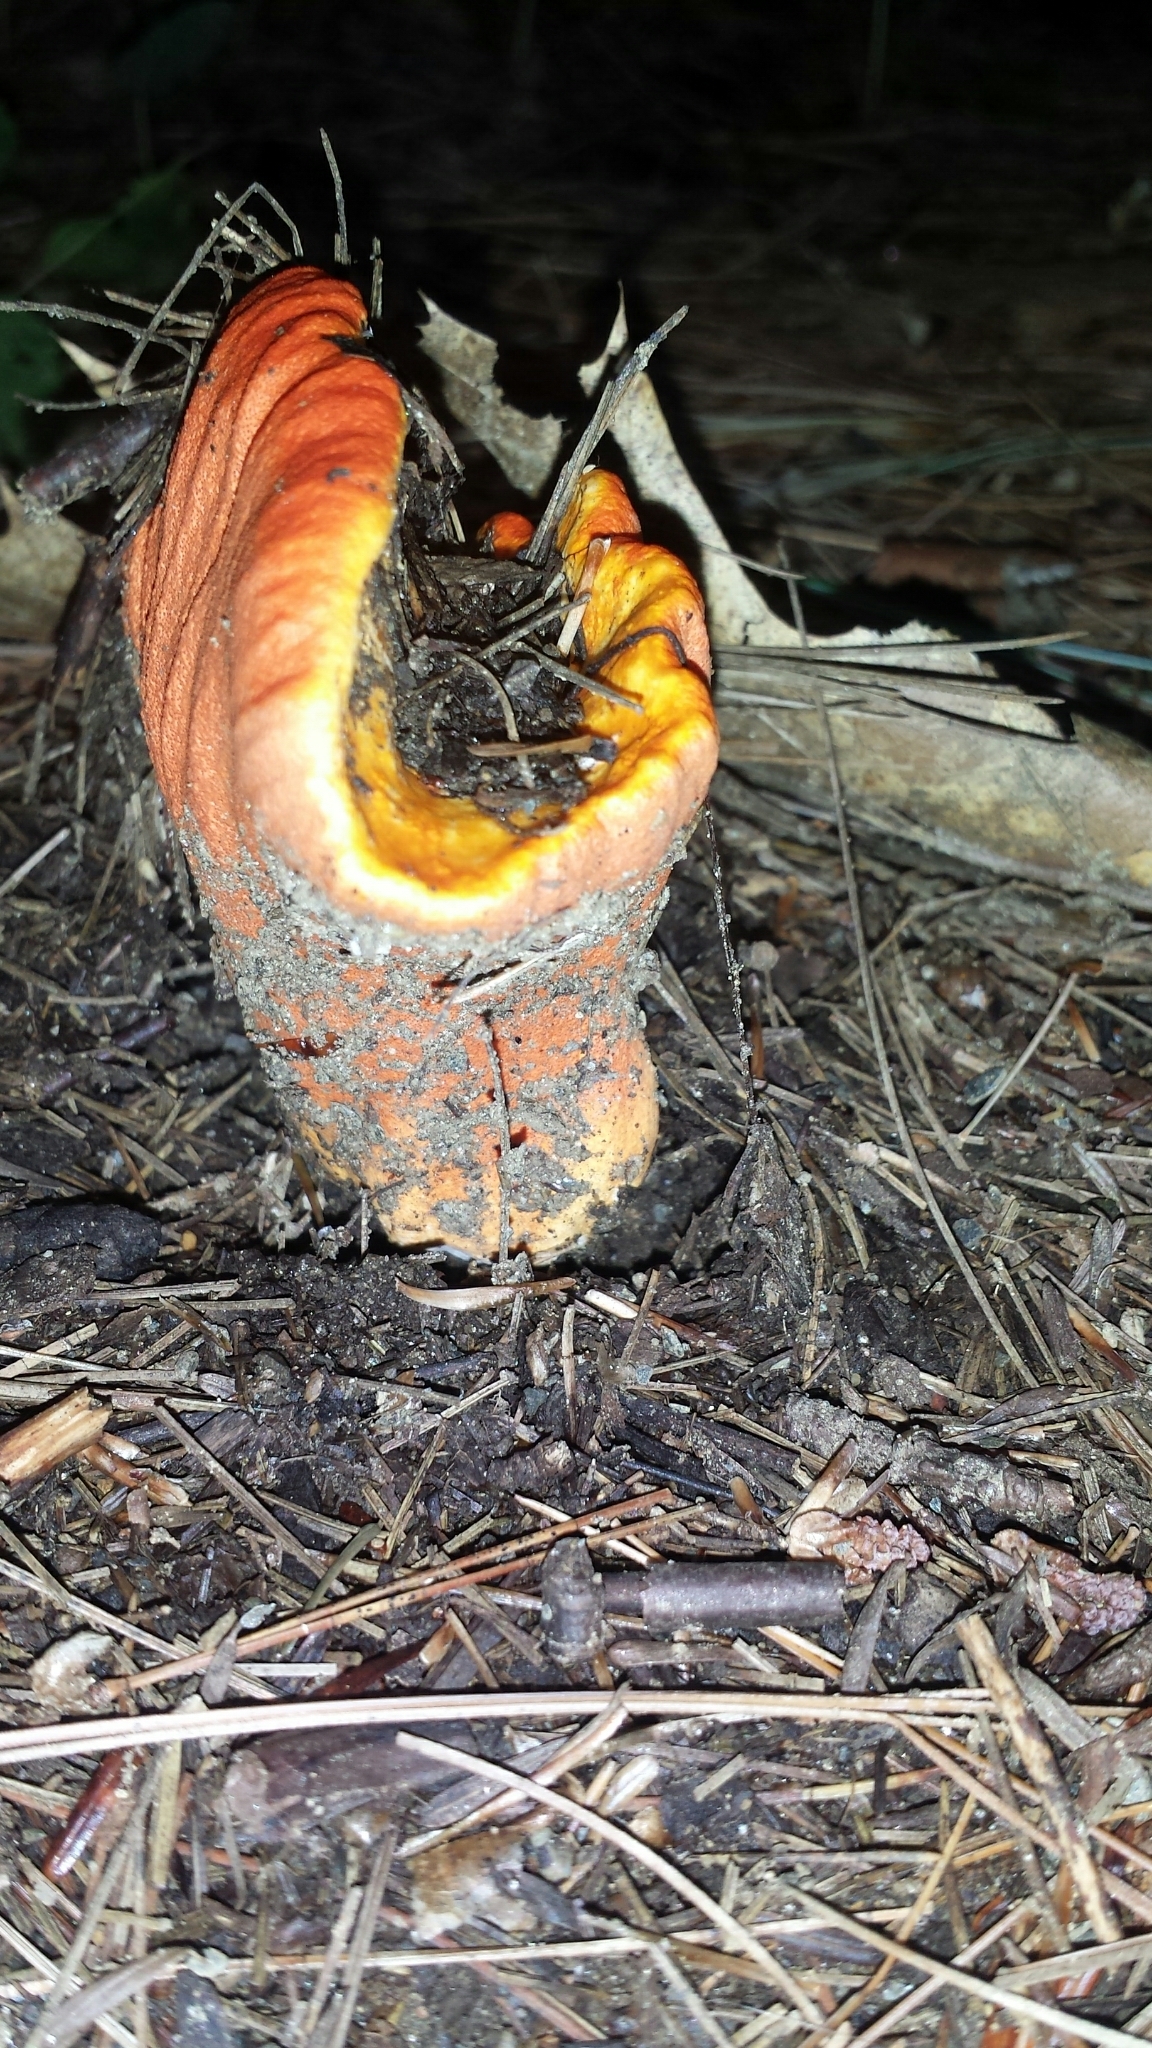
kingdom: Fungi
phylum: Ascomycota
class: Sordariomycetes
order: Hypocreales
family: Hypocreaceae
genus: Hypomyces
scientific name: Hypomyces lactifluorum
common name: Lobster mushroom
